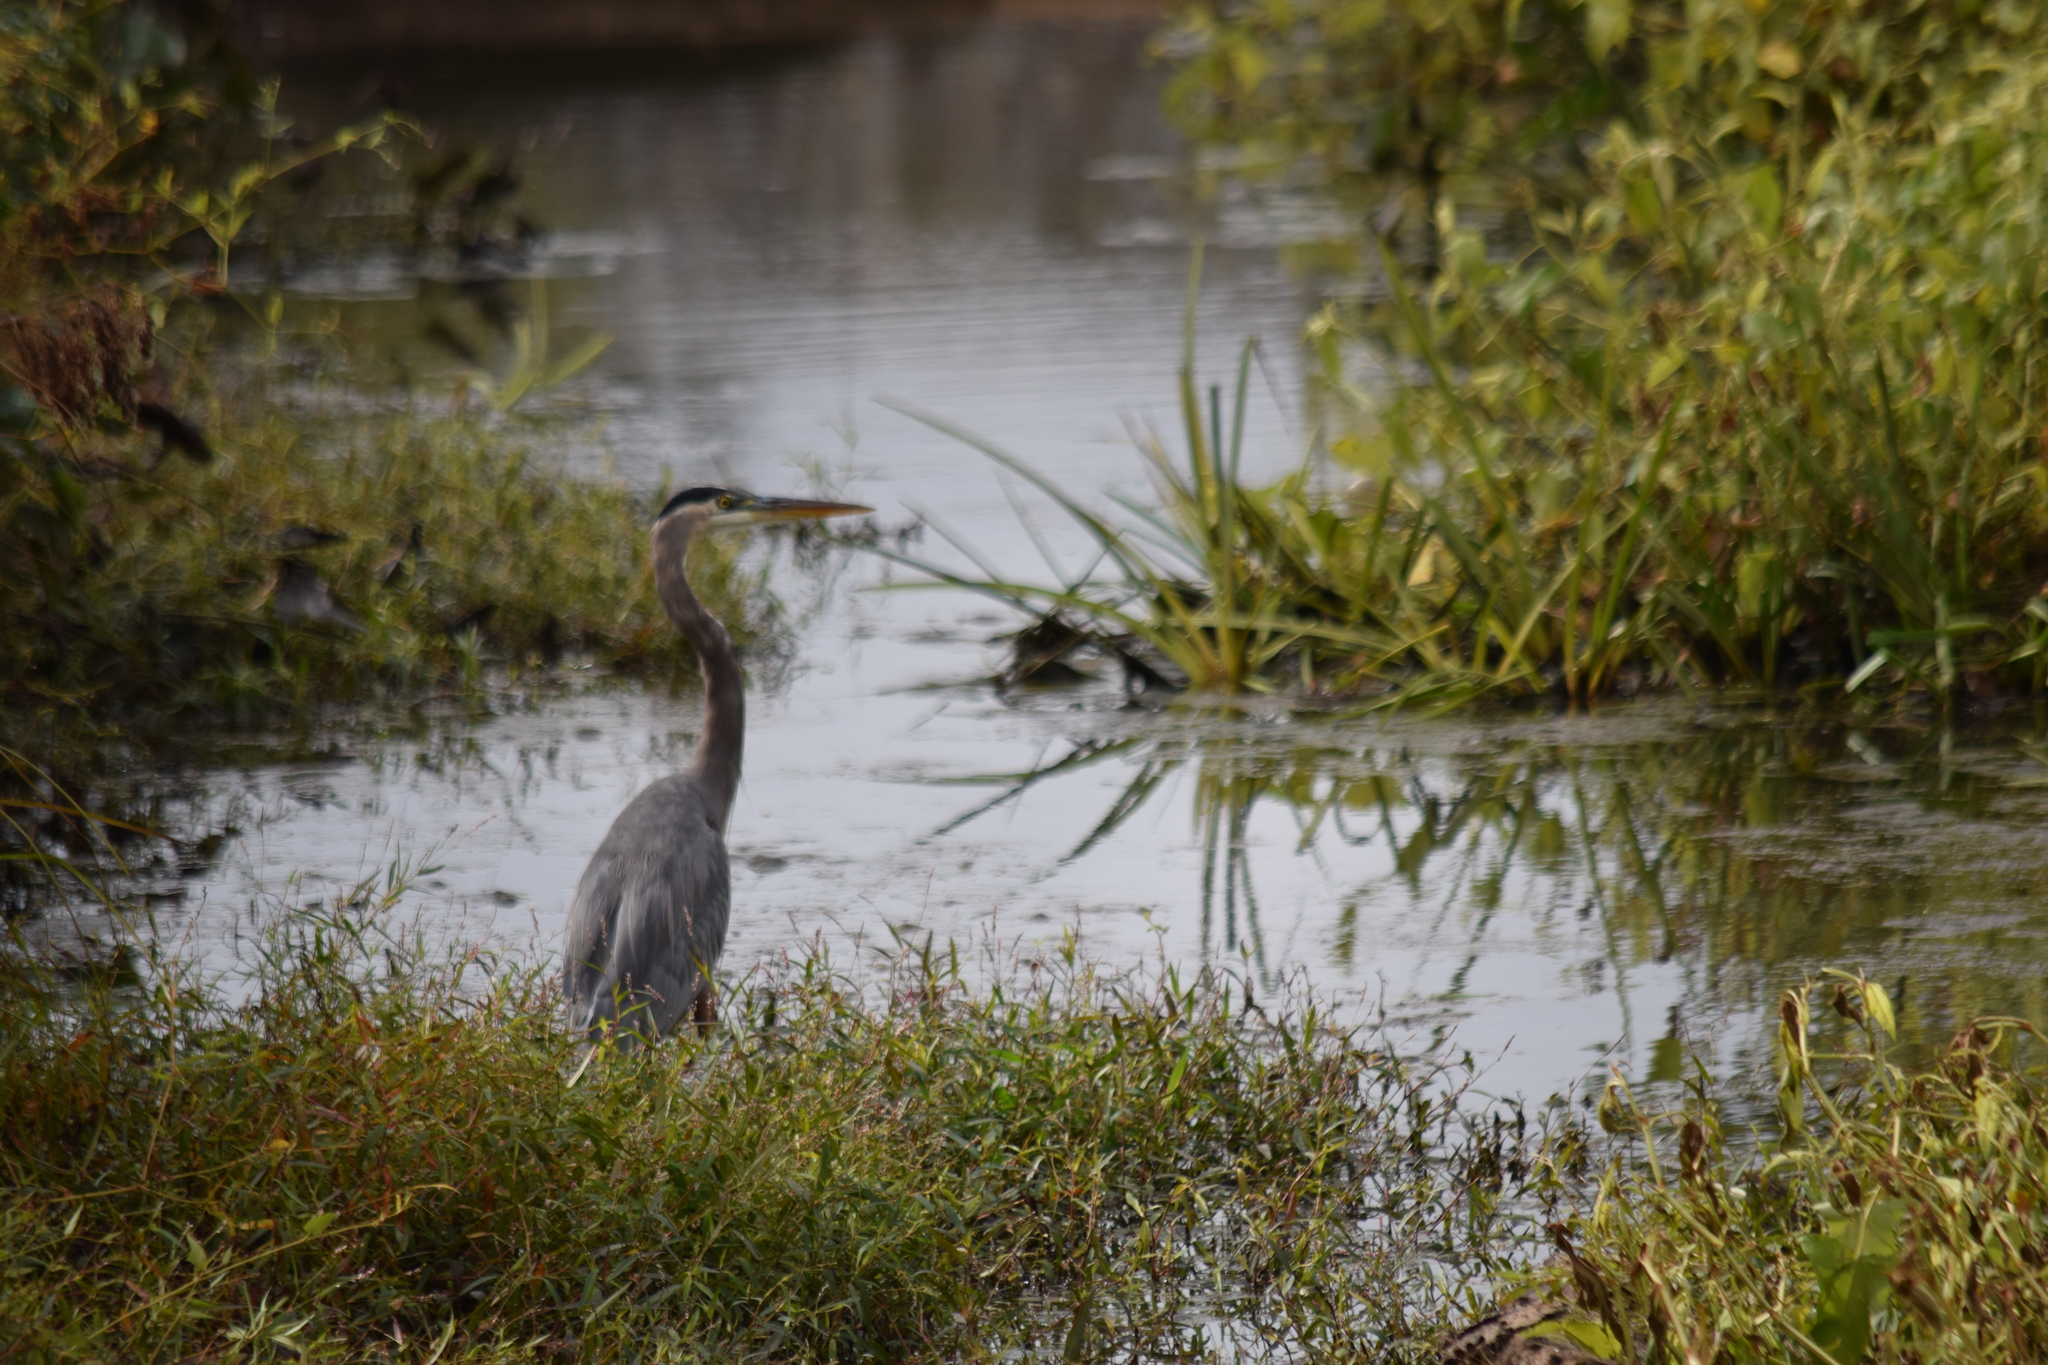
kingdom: Animalia
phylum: Chordata
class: Aves
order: Pelecaniformes
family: Ardeidae
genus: Ardea
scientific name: Ardea herodias
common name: Great blue heron
